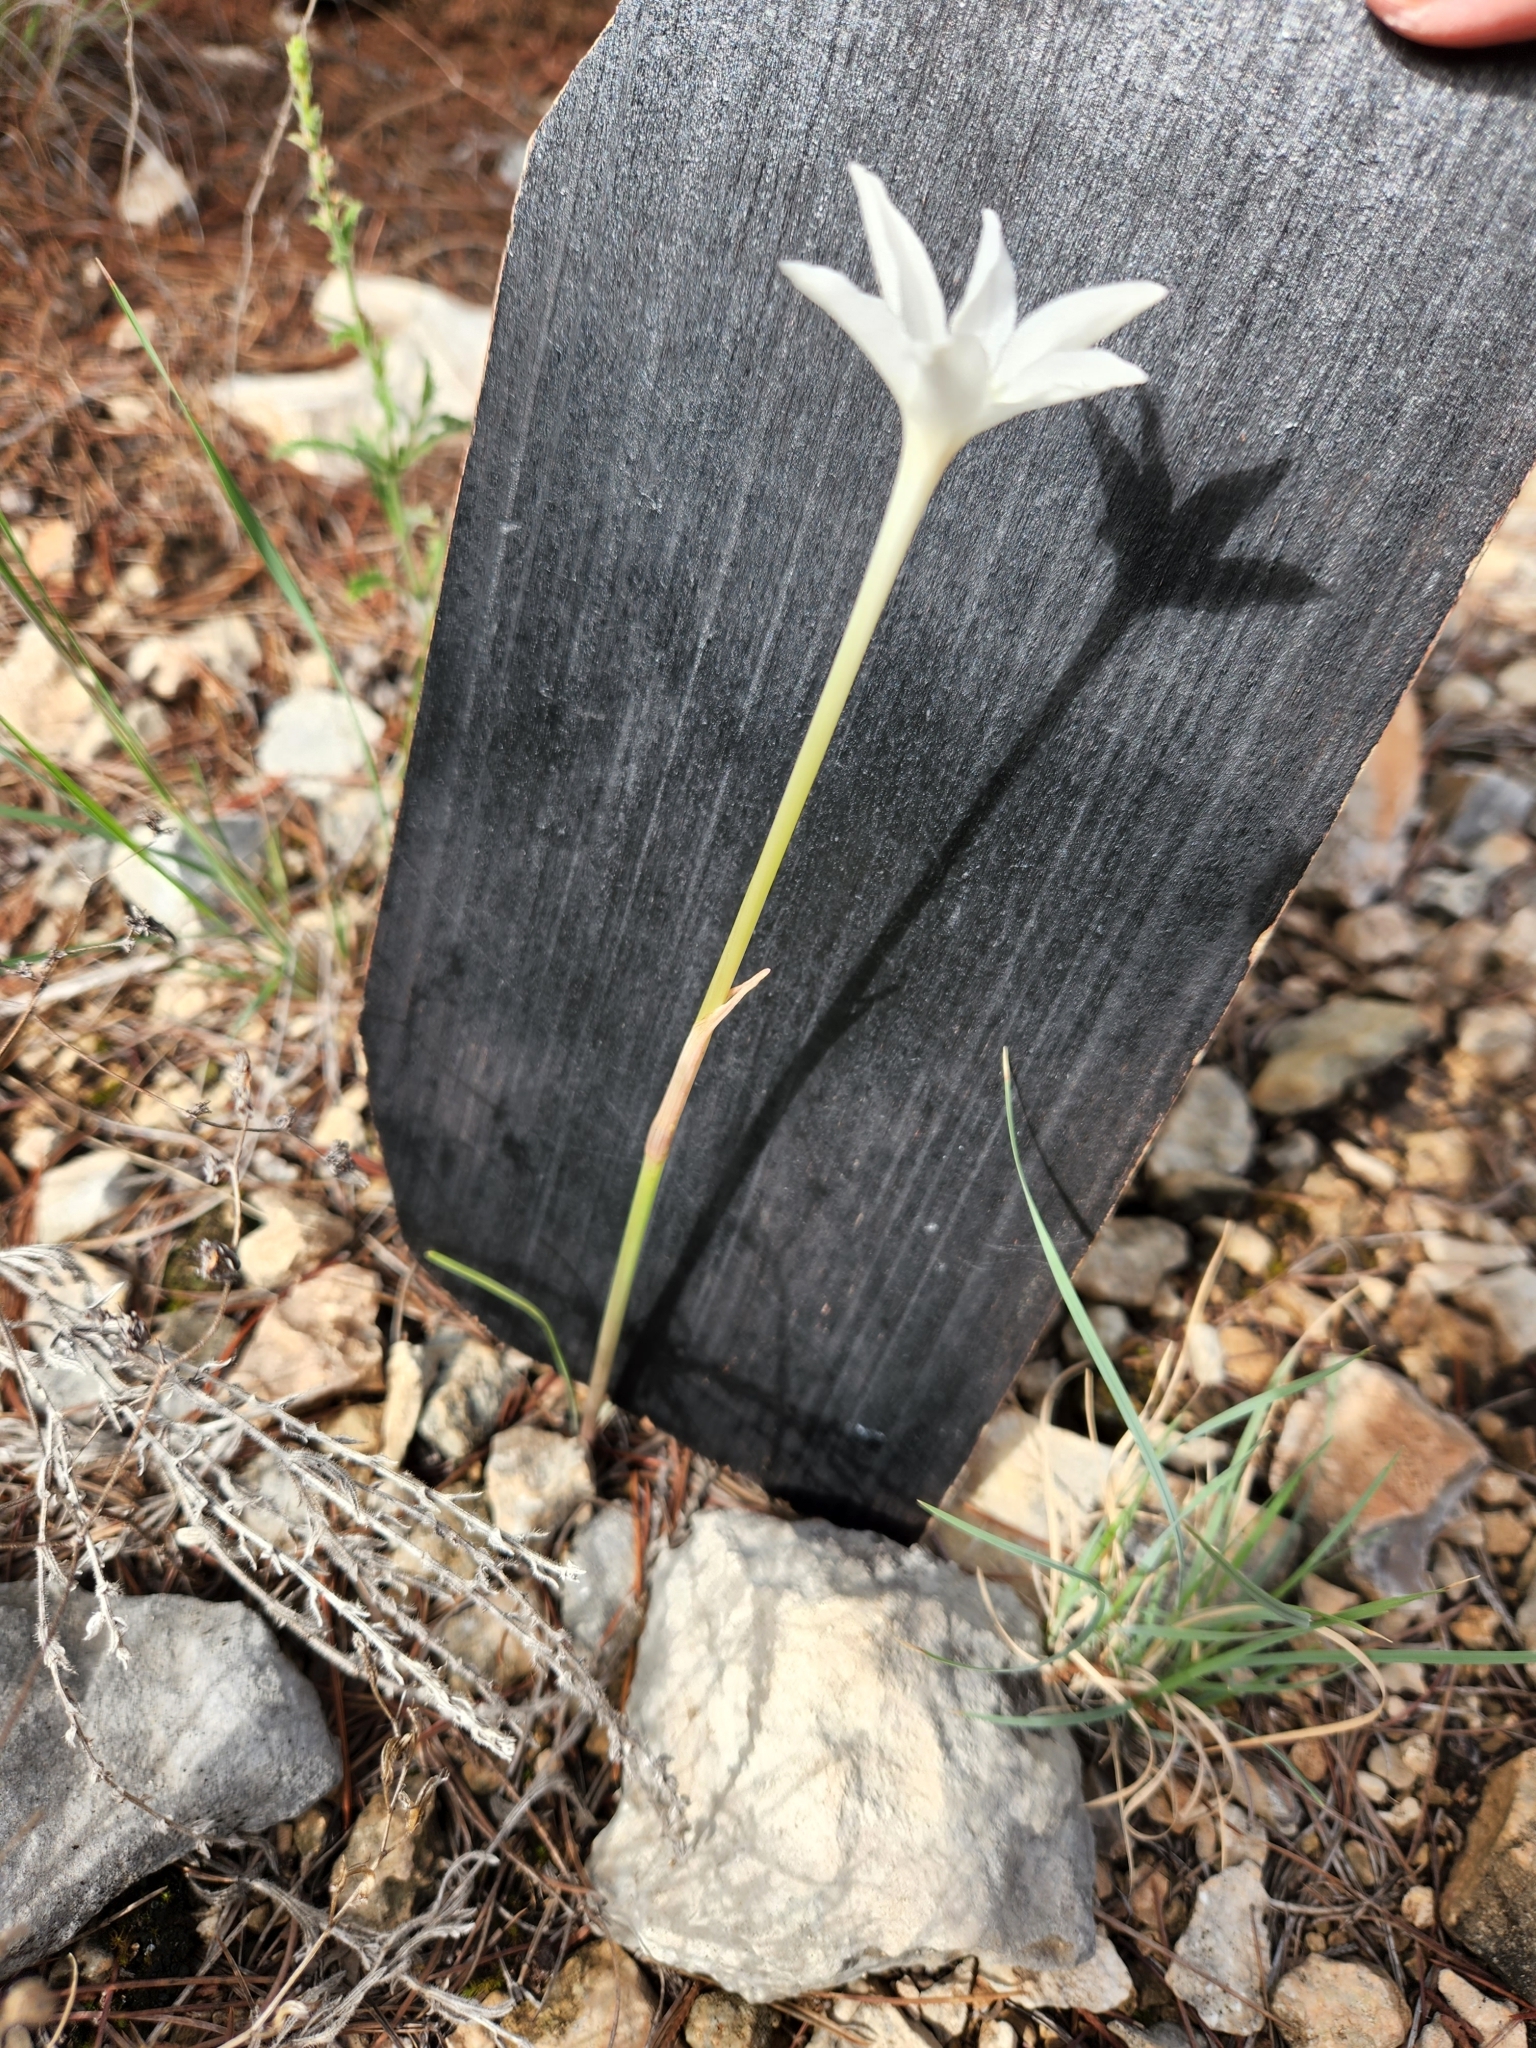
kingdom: Plantae
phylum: Tracheophyta
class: Liliopsida
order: Asparagales
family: Amaryllidaceae
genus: Zephyranthes
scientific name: Zephyranthes chlorosolen
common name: Evening rain-lily
